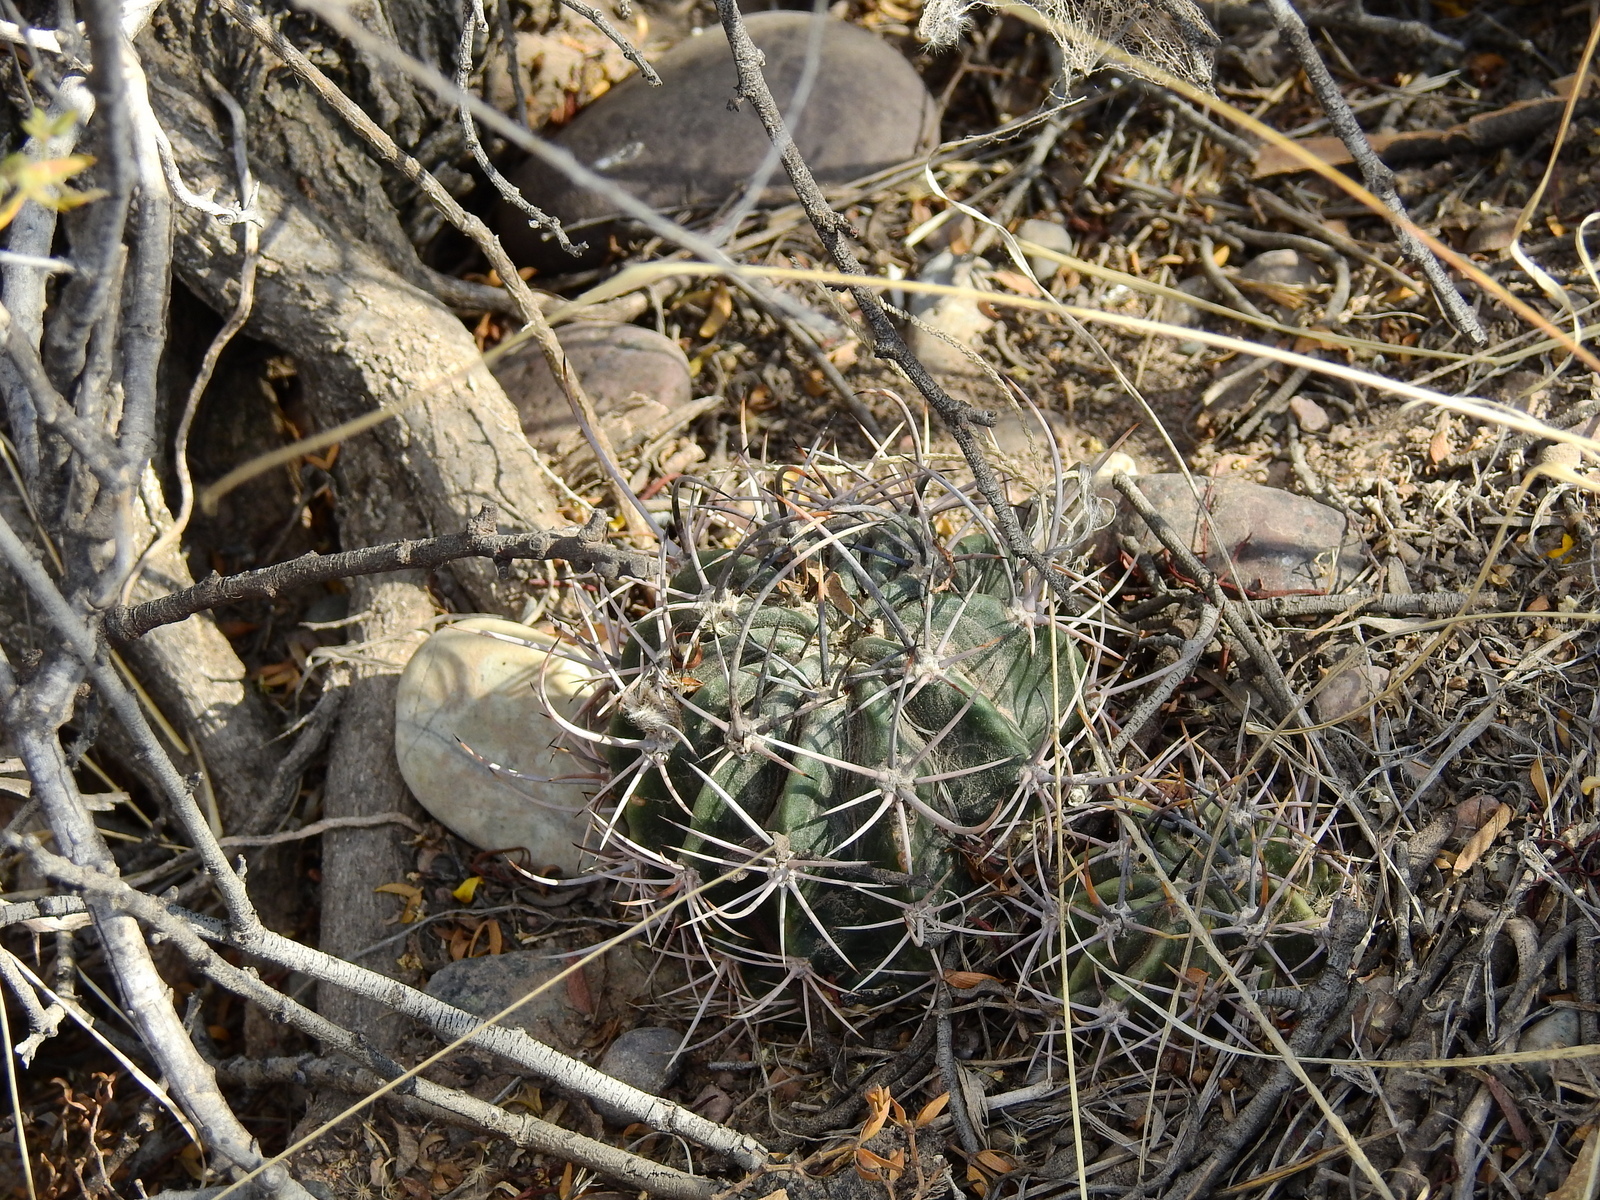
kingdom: Plantae
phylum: Tracheophyta
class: Magnoliopsida
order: Caryophyllales
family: Cactaceae
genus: Acanthocalycium
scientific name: Acanthocalycium leucanthum
